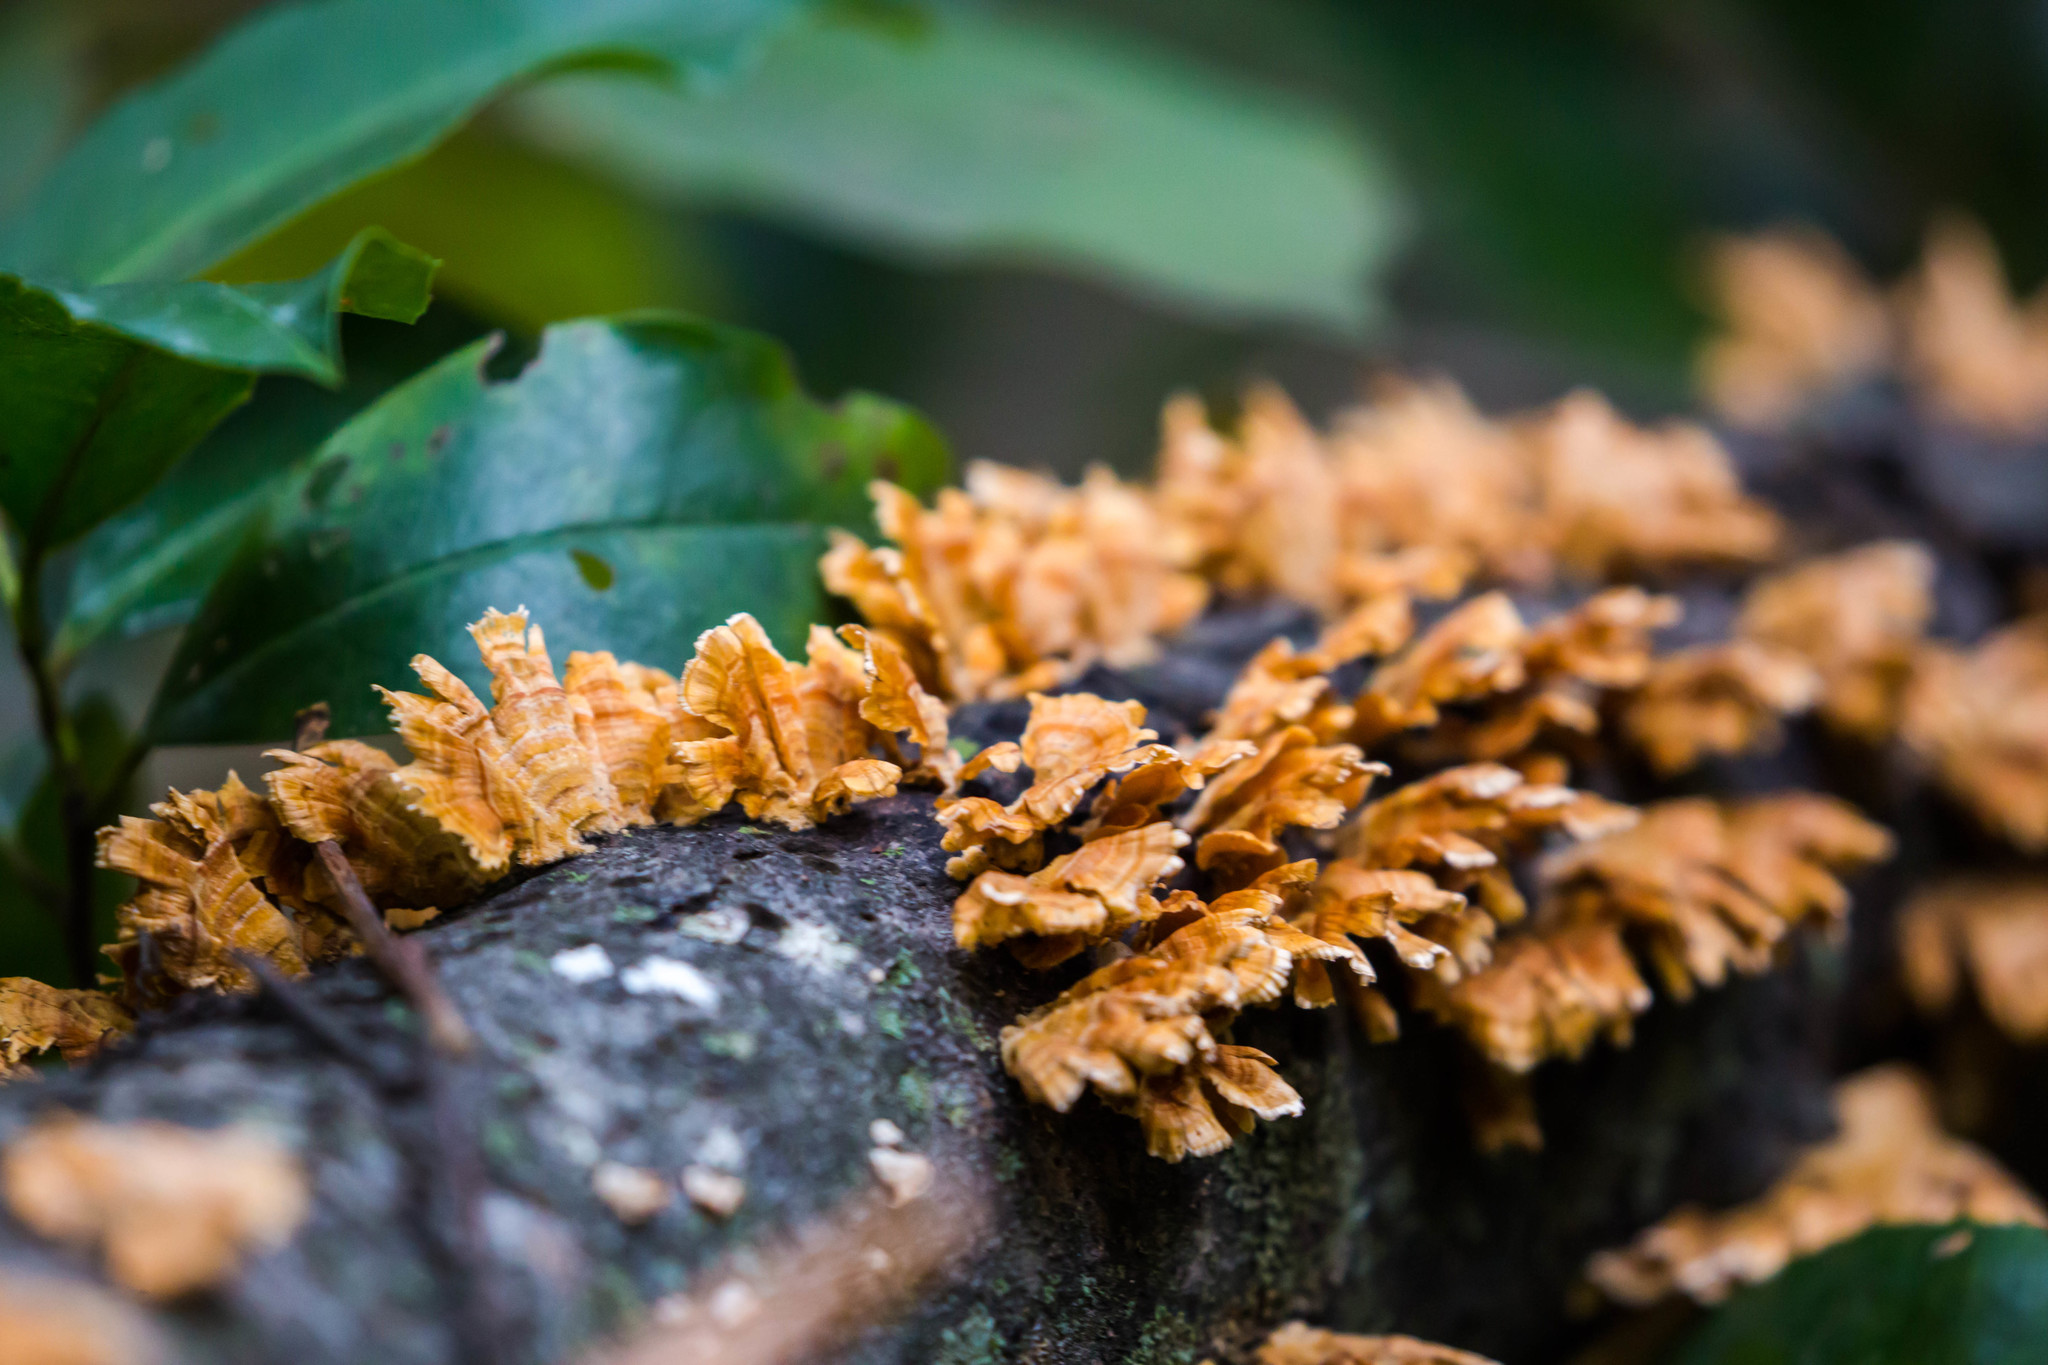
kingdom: Fungi
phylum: Basidiomycota
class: Agaricomycetes
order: Russulales
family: Stereaceae
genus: Stereum
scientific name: Stereum complicatum
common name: Crowded parchment
